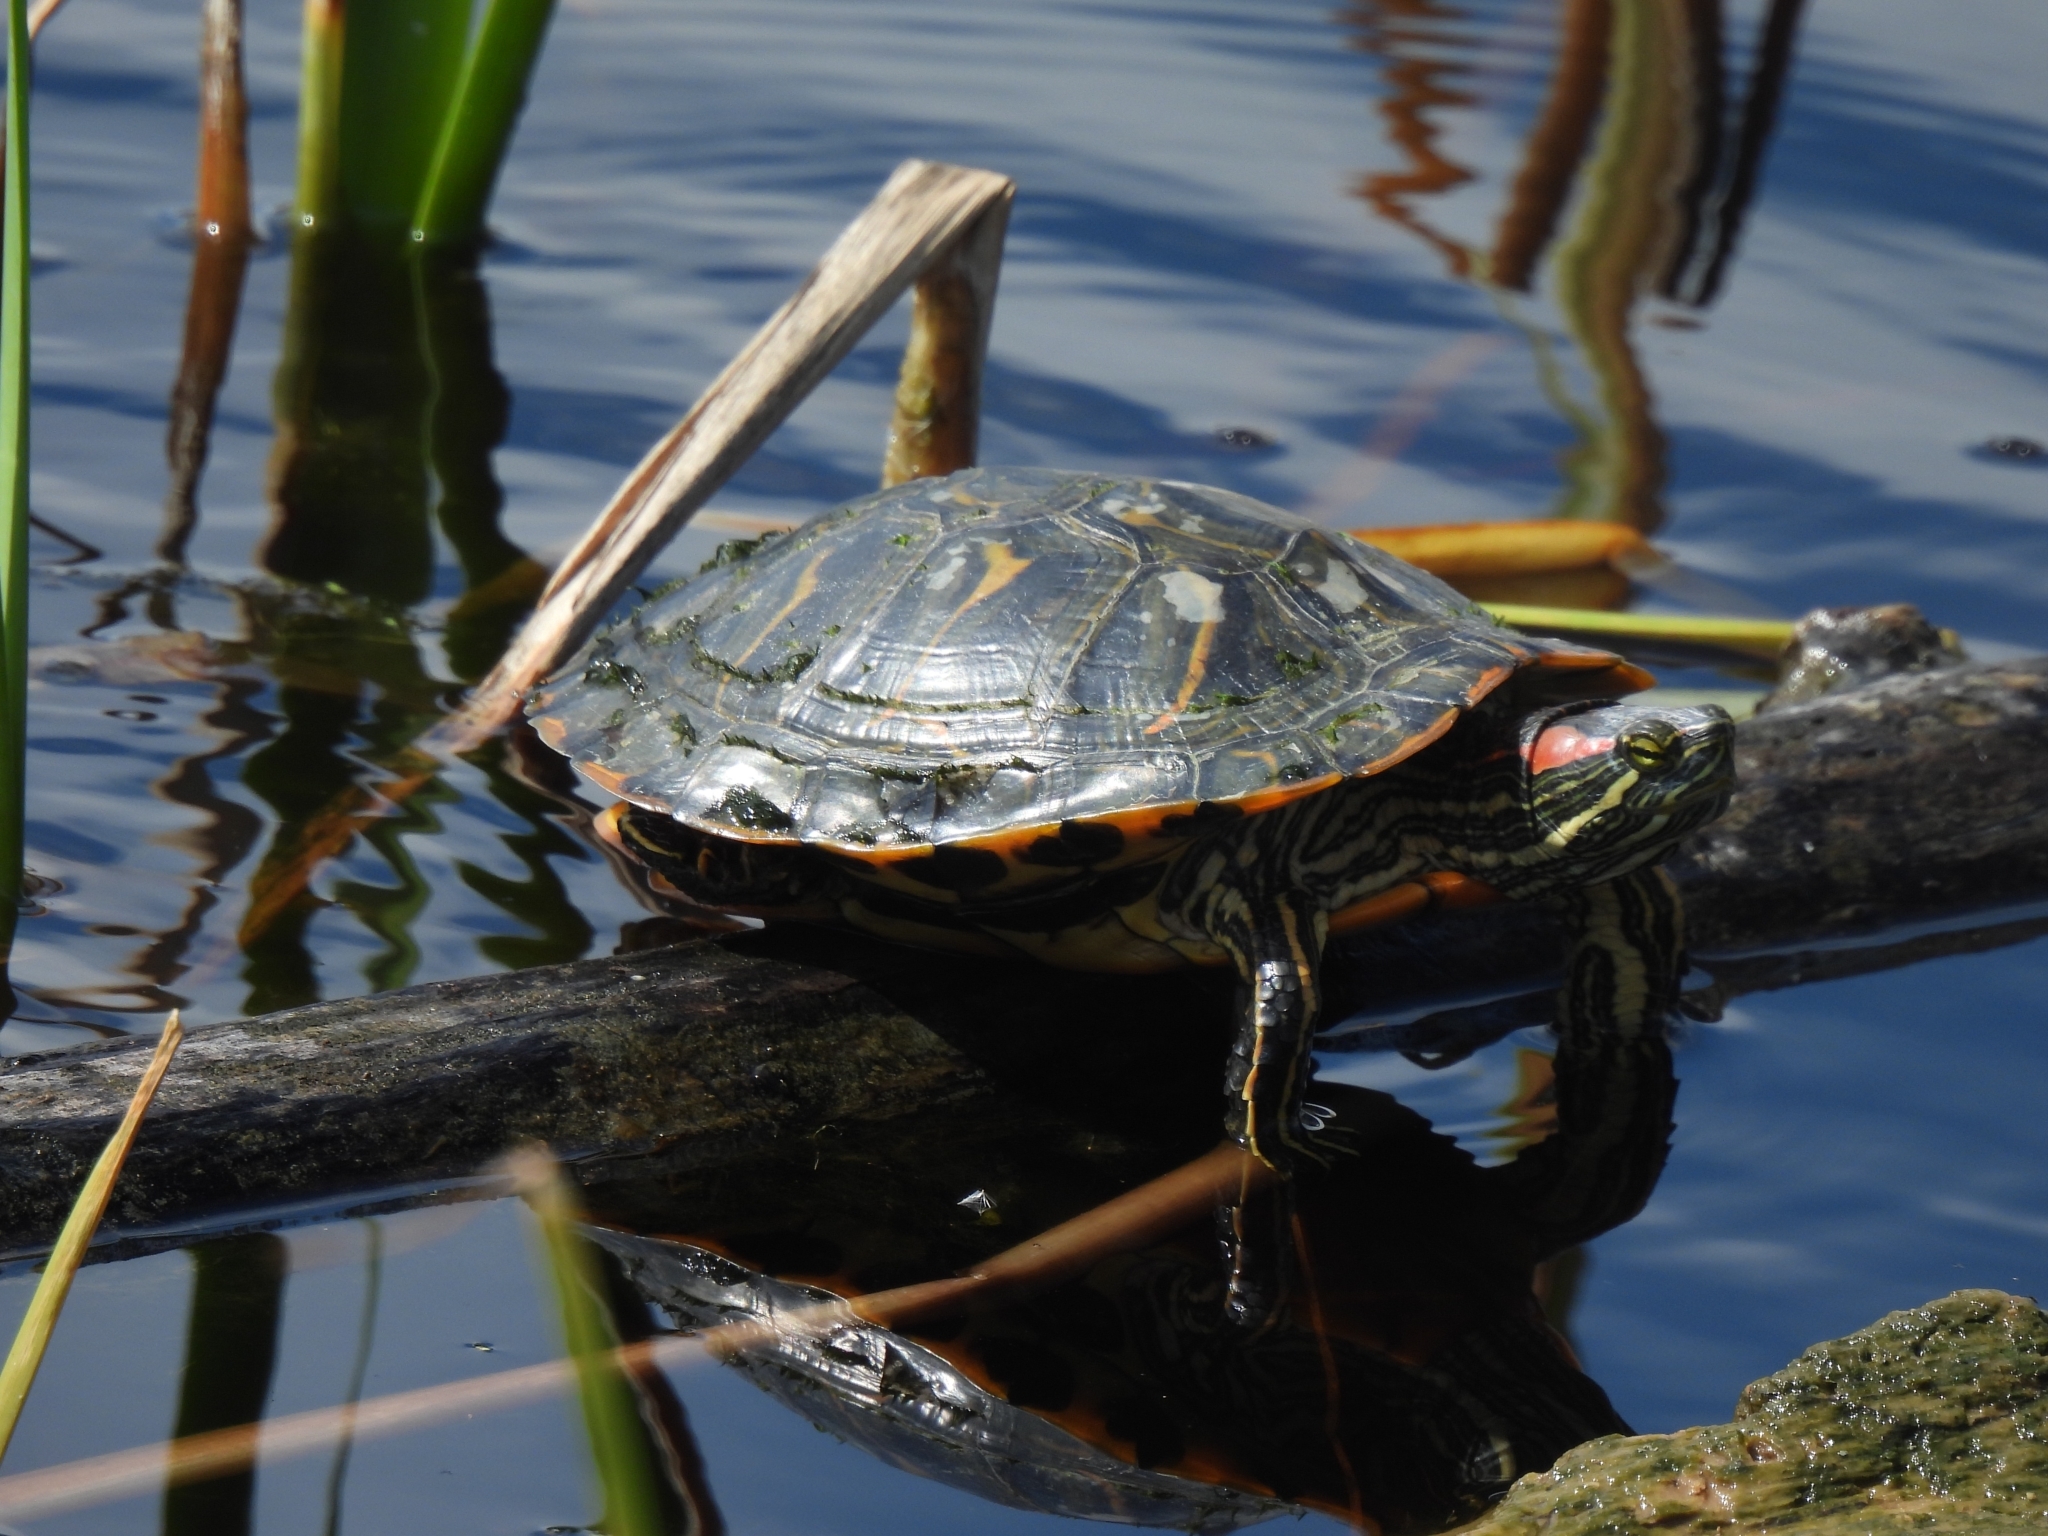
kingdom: Animalia
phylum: Chordata
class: Testudines
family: Emydidae
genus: Trachemys
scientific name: Trachemys scripta
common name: Slider
